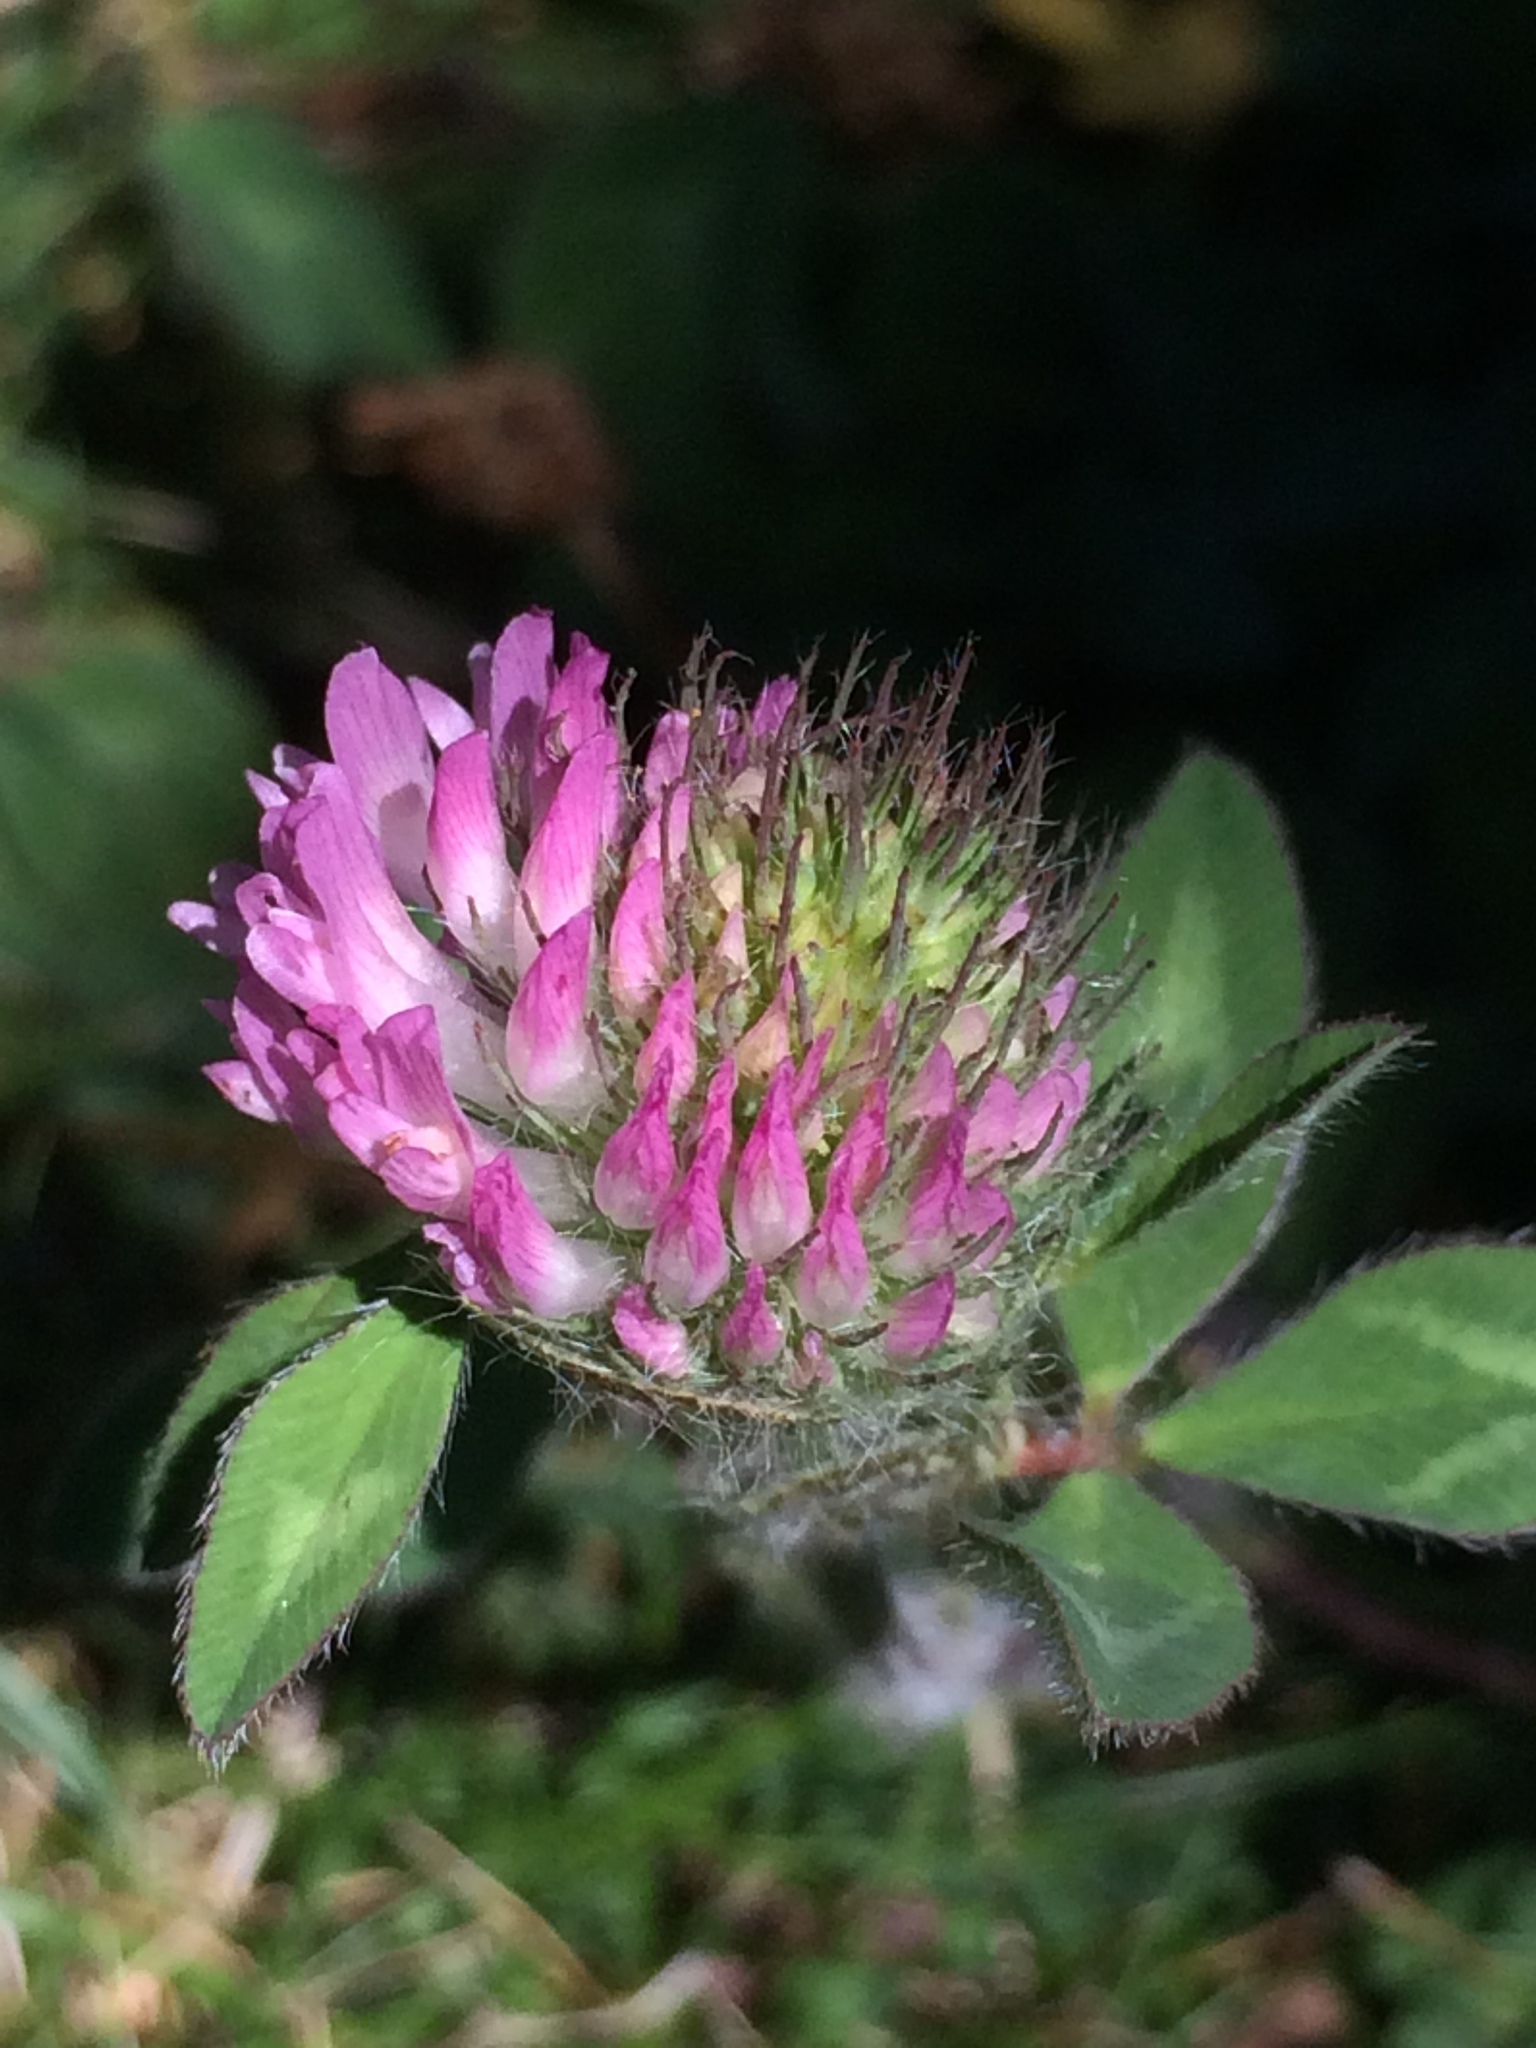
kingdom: Plantae
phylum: Tracheophyta
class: Magnoliopsida
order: Fabales
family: Fabaceae
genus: Trifolium
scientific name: Trifolium pratense
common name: Red clover
